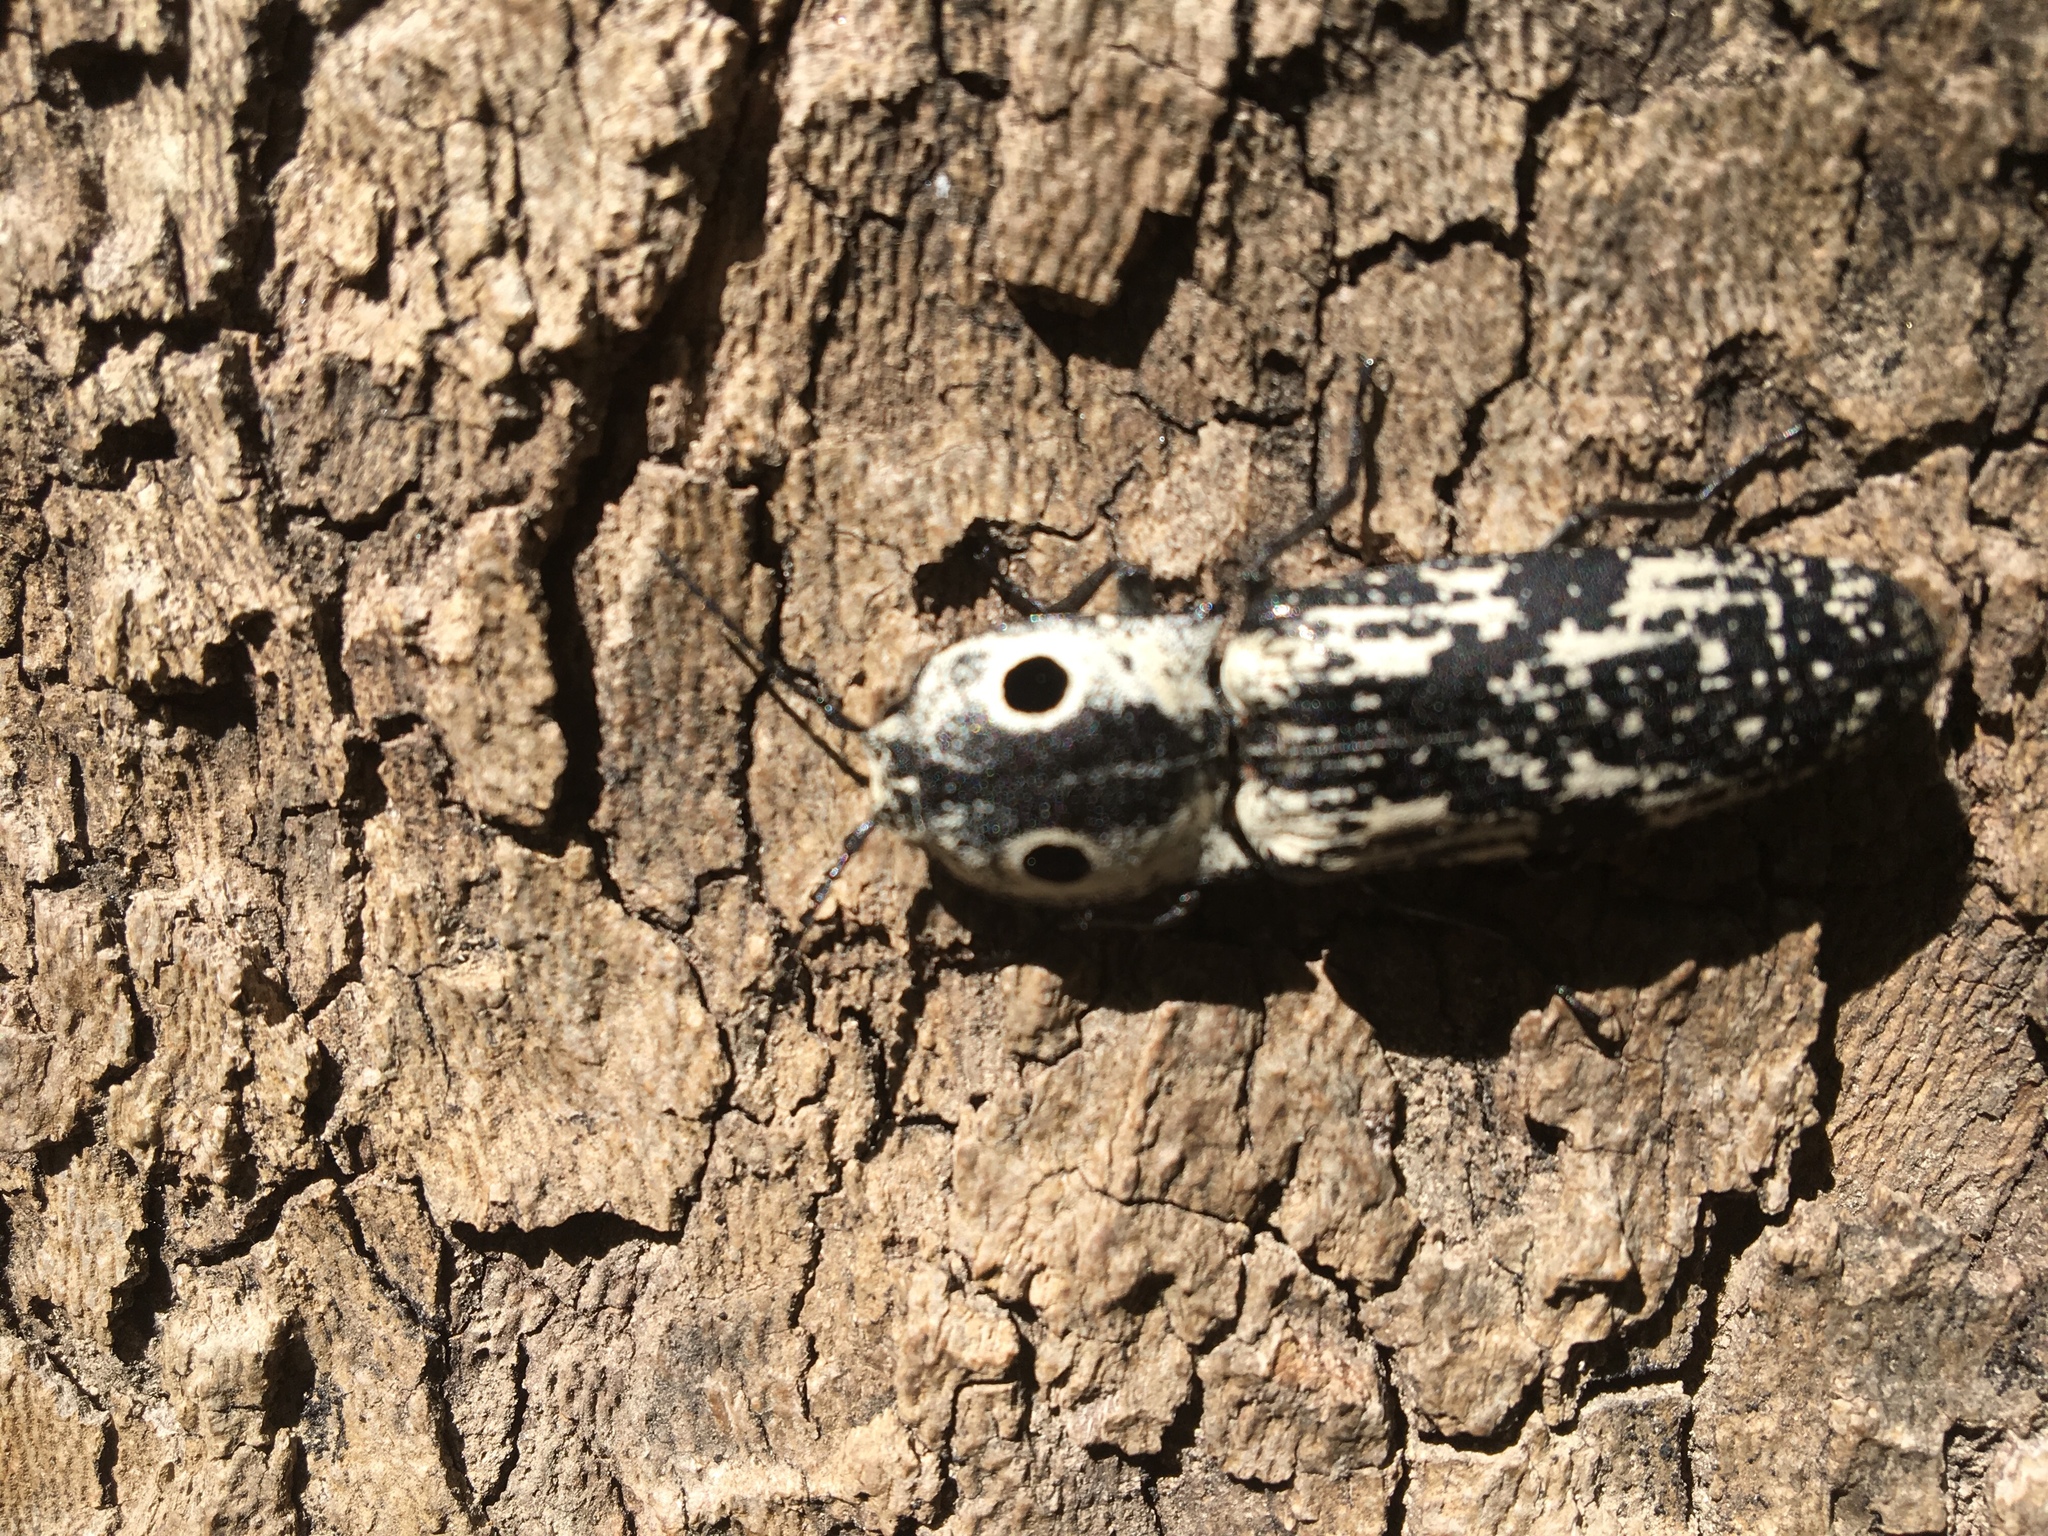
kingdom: Animalia
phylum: Arthropoda
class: Insecta
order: Coleoptera
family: Elateridae
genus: Alaus
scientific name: Alaus
